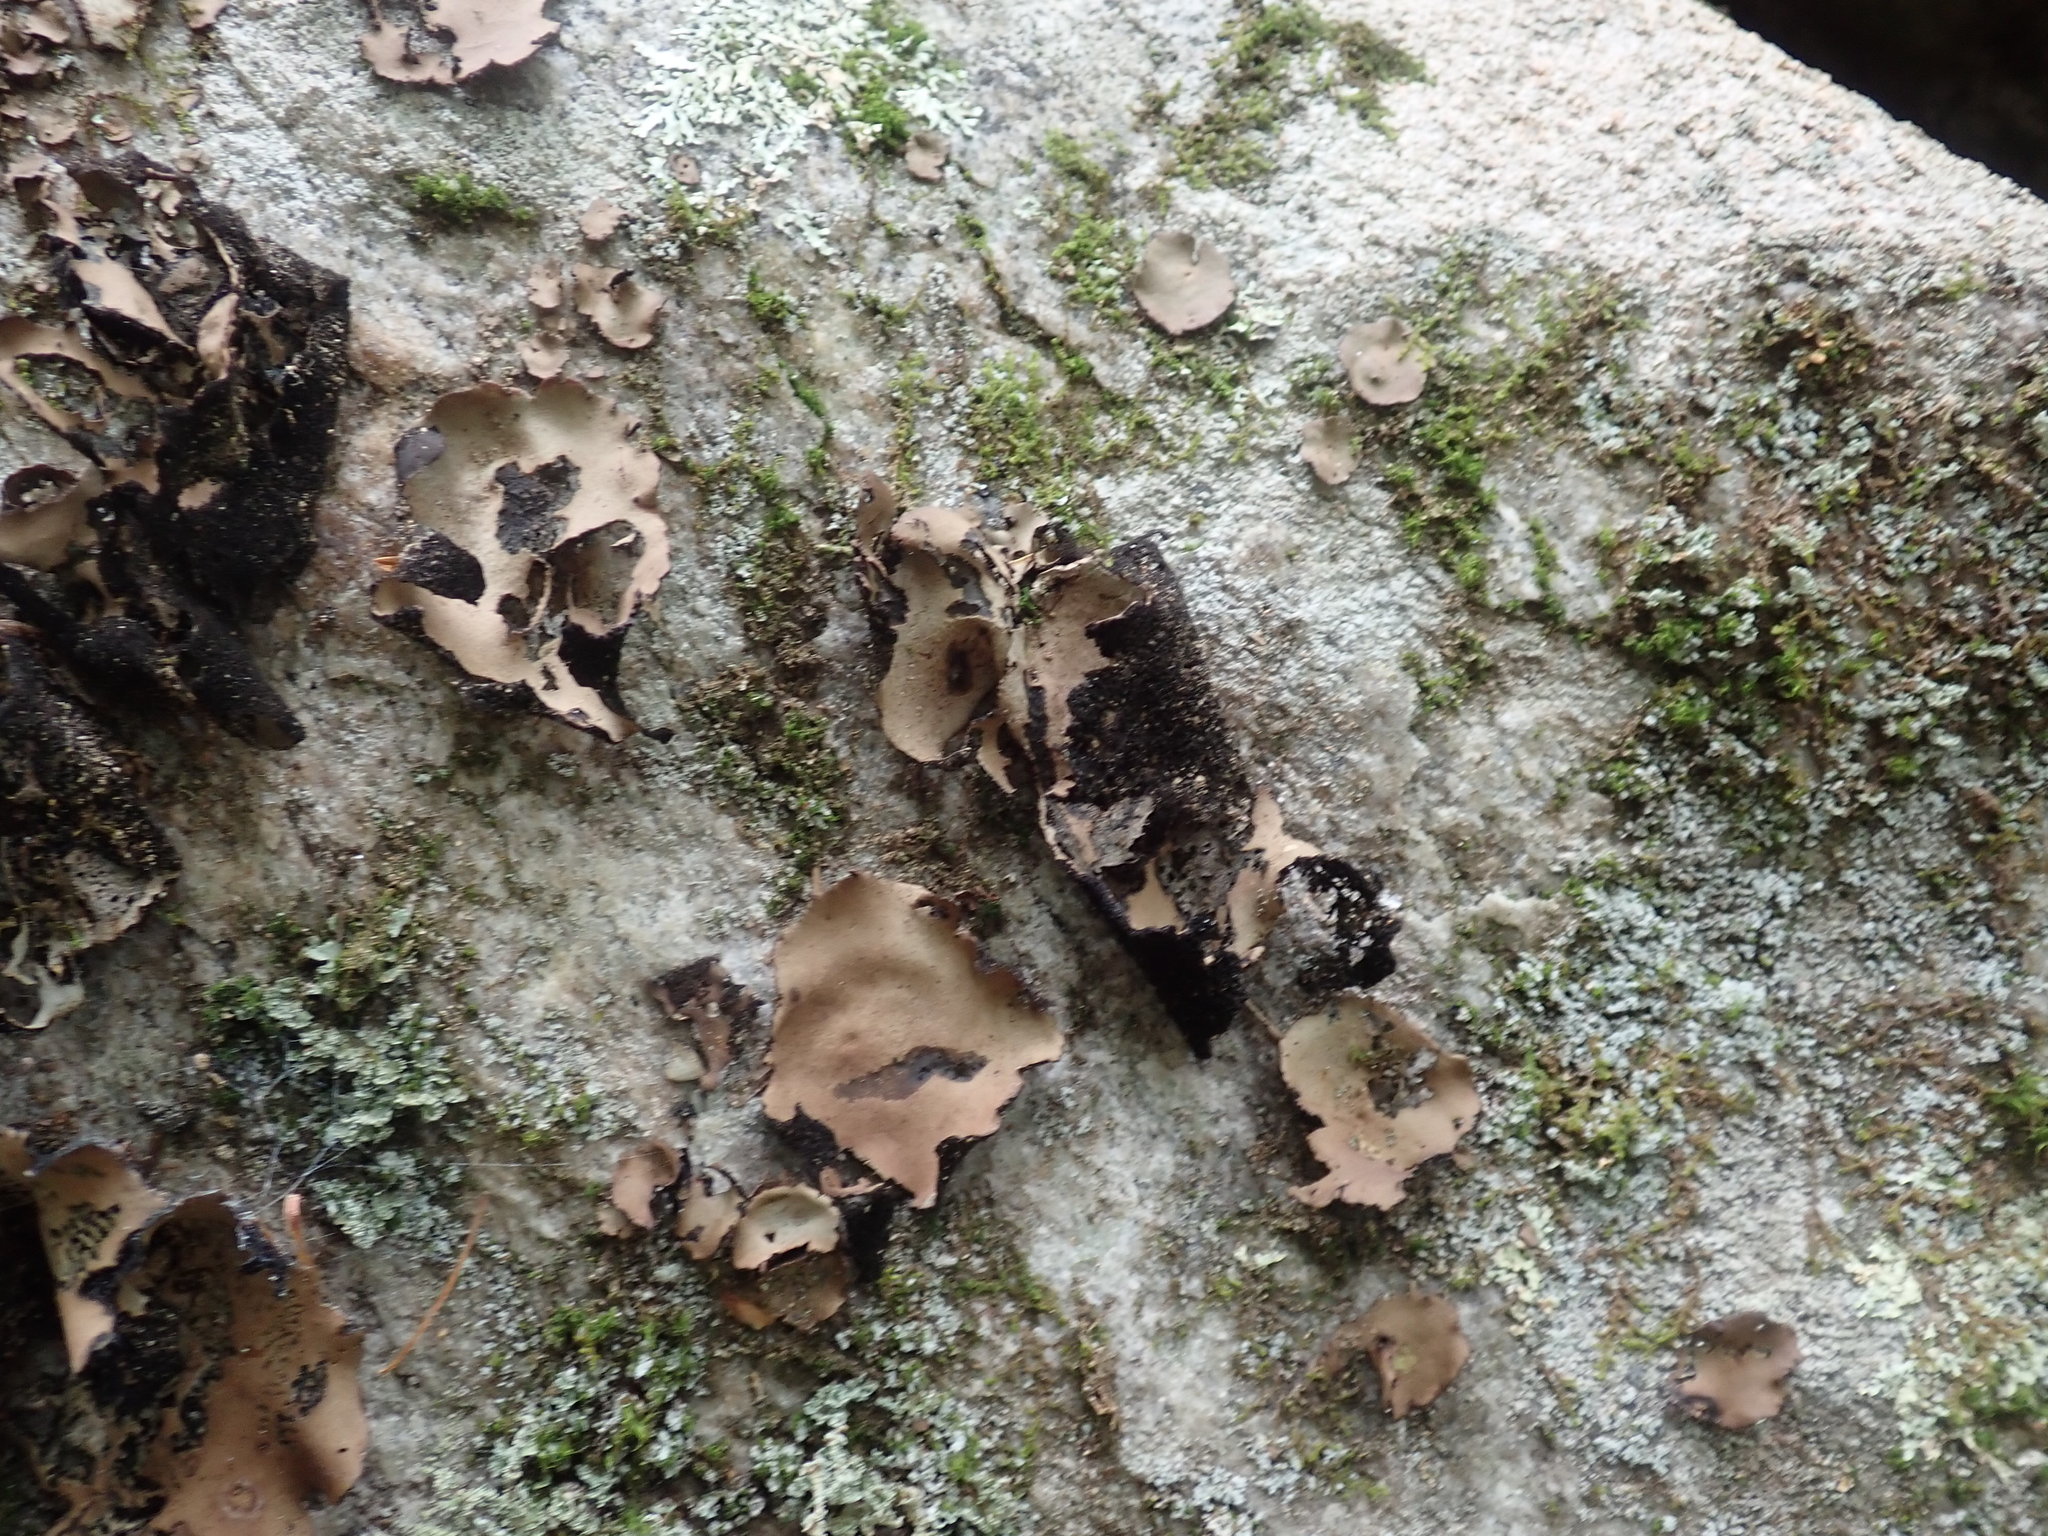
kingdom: Fungi
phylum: Ascomycota
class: Lecanoromycetes
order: Umbilicariales
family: Umbilicariaceae
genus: Umbilicaria
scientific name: Umbilicaria mammulata
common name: Smooth rock tripe
